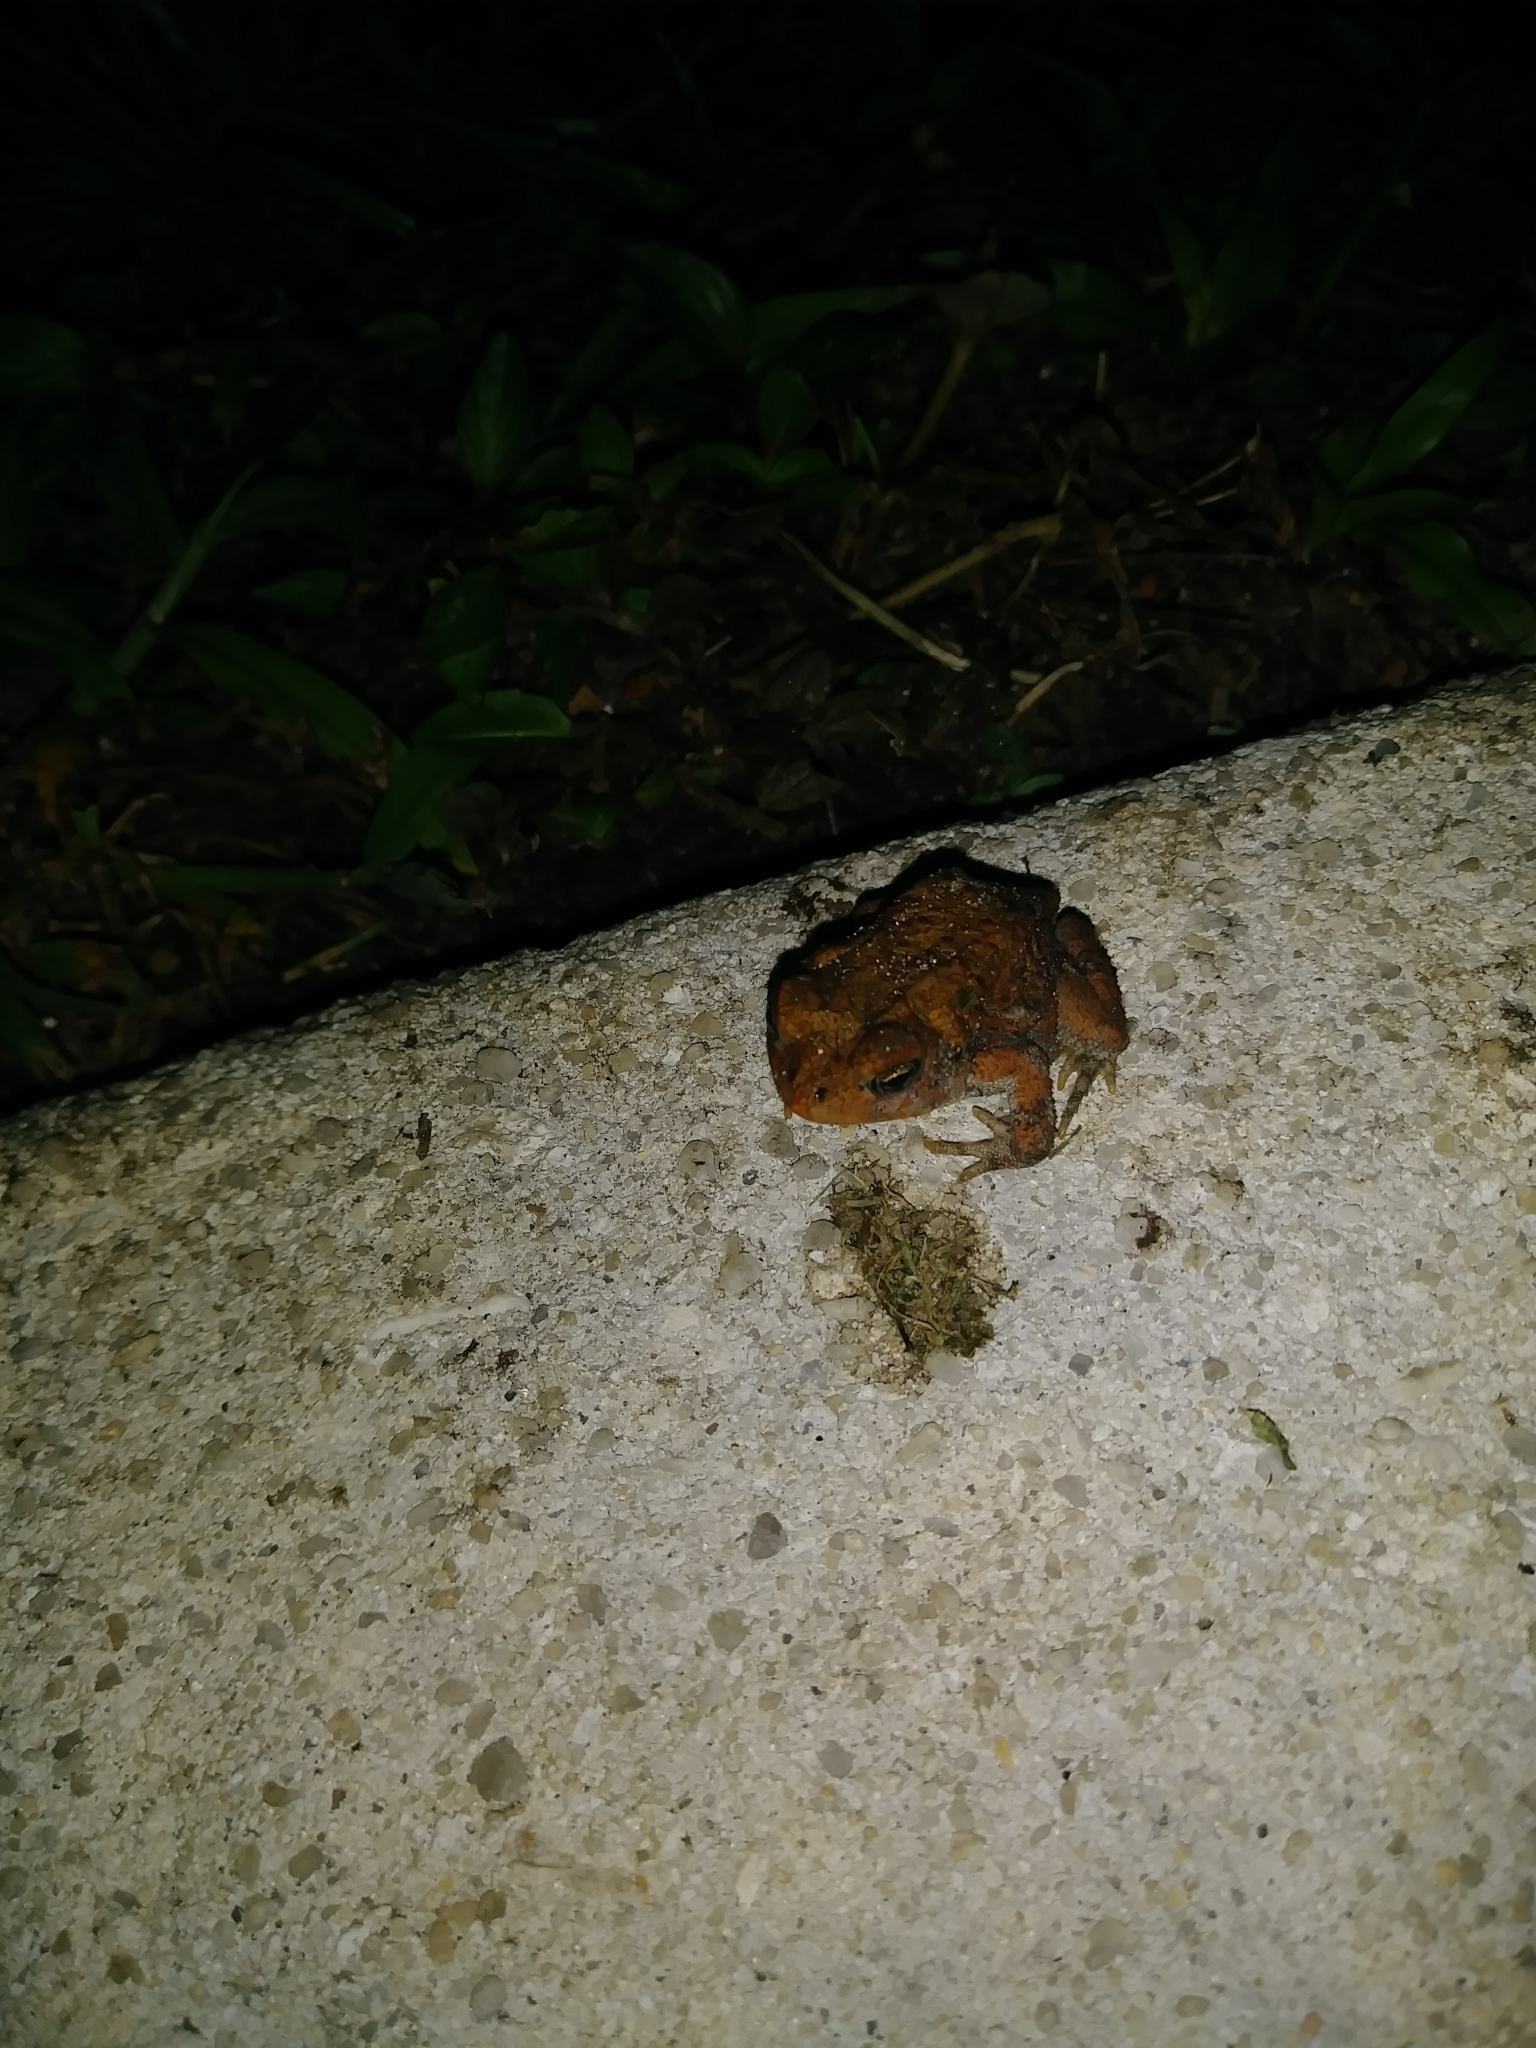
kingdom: Animalia
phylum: Chordata
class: Amphibia
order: Anura
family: Bufonidae
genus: Anaxyrus
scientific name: Anaxyrus terrestris
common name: Southern toad
